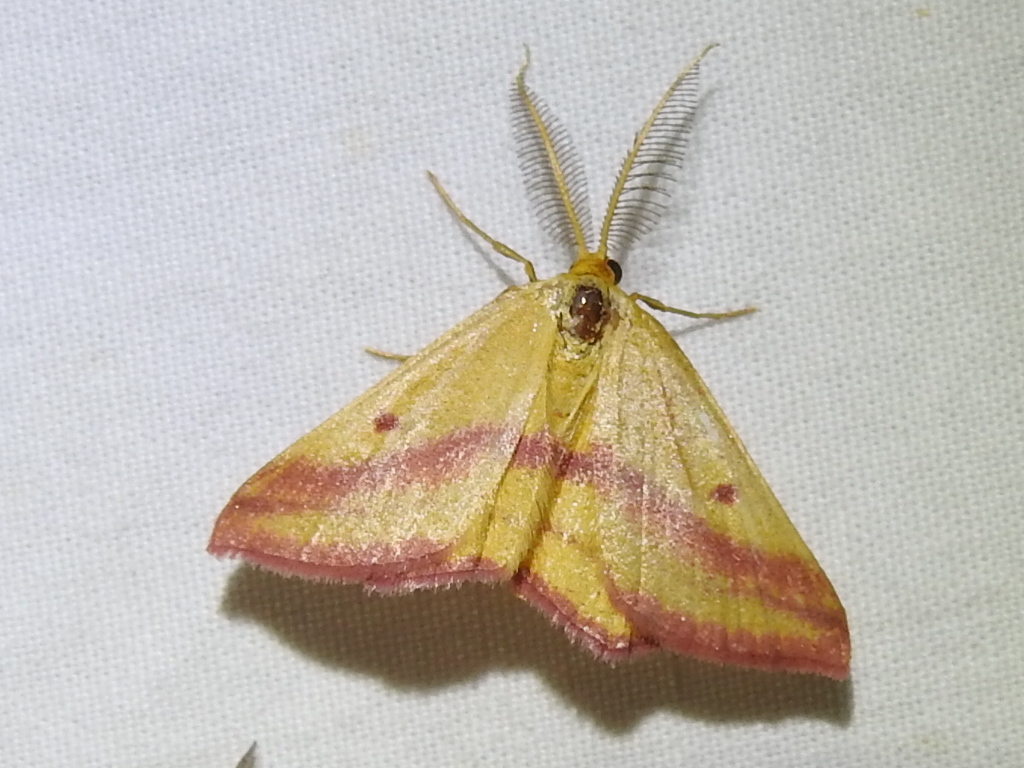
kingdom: Animalia
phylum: Arthropoda
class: Insecta
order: Lepidoptera
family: Geometridae
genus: Haematopis
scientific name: Haematopis grataria
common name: Chickweed geometer
